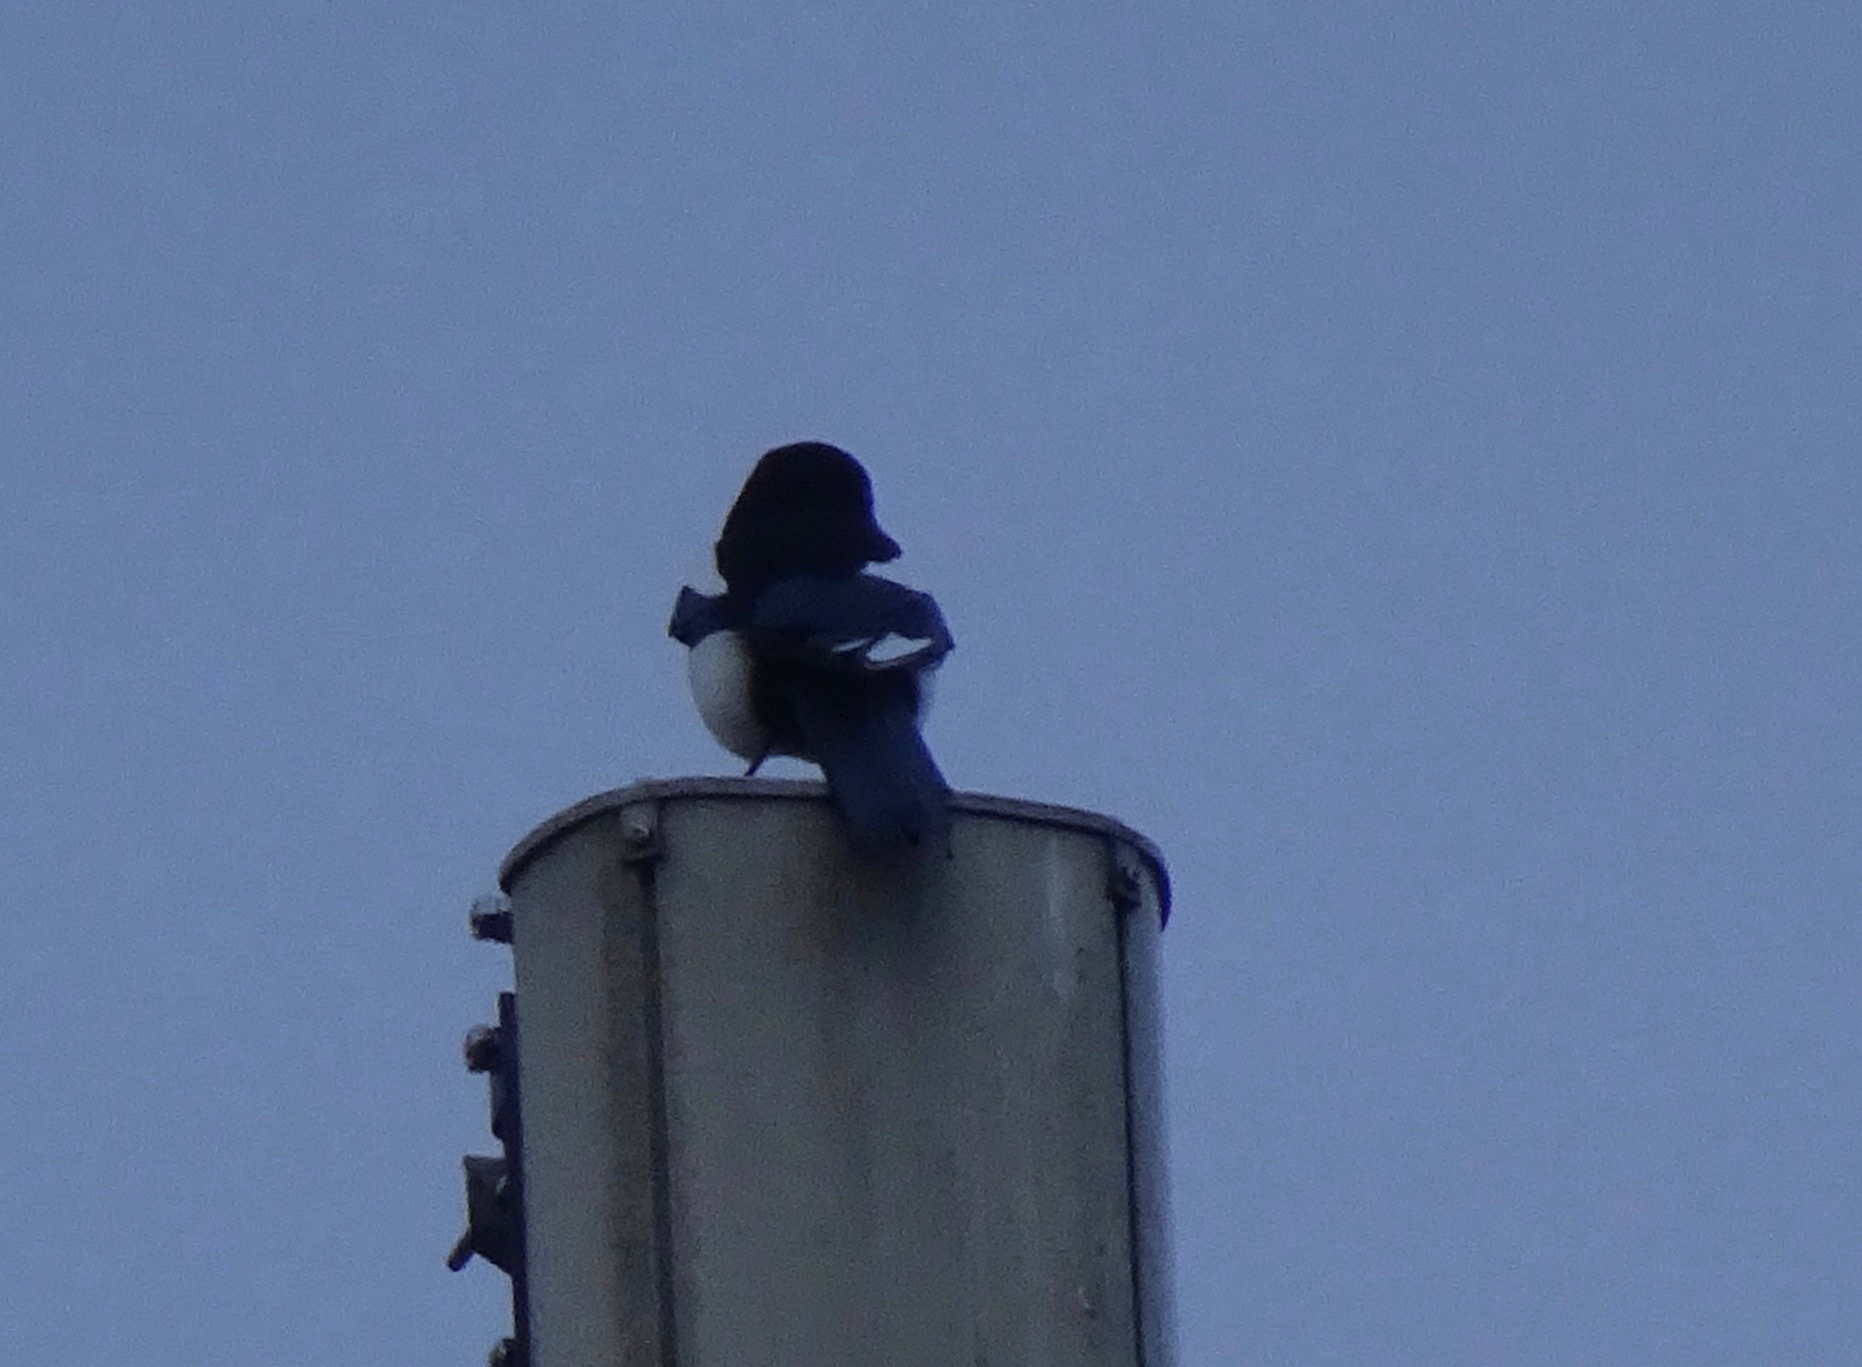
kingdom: Animalia
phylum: Chordata
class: Aves
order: Passeriformes
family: Corvidae
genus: Pica
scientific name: Pica pica
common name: Eurasian magpie
